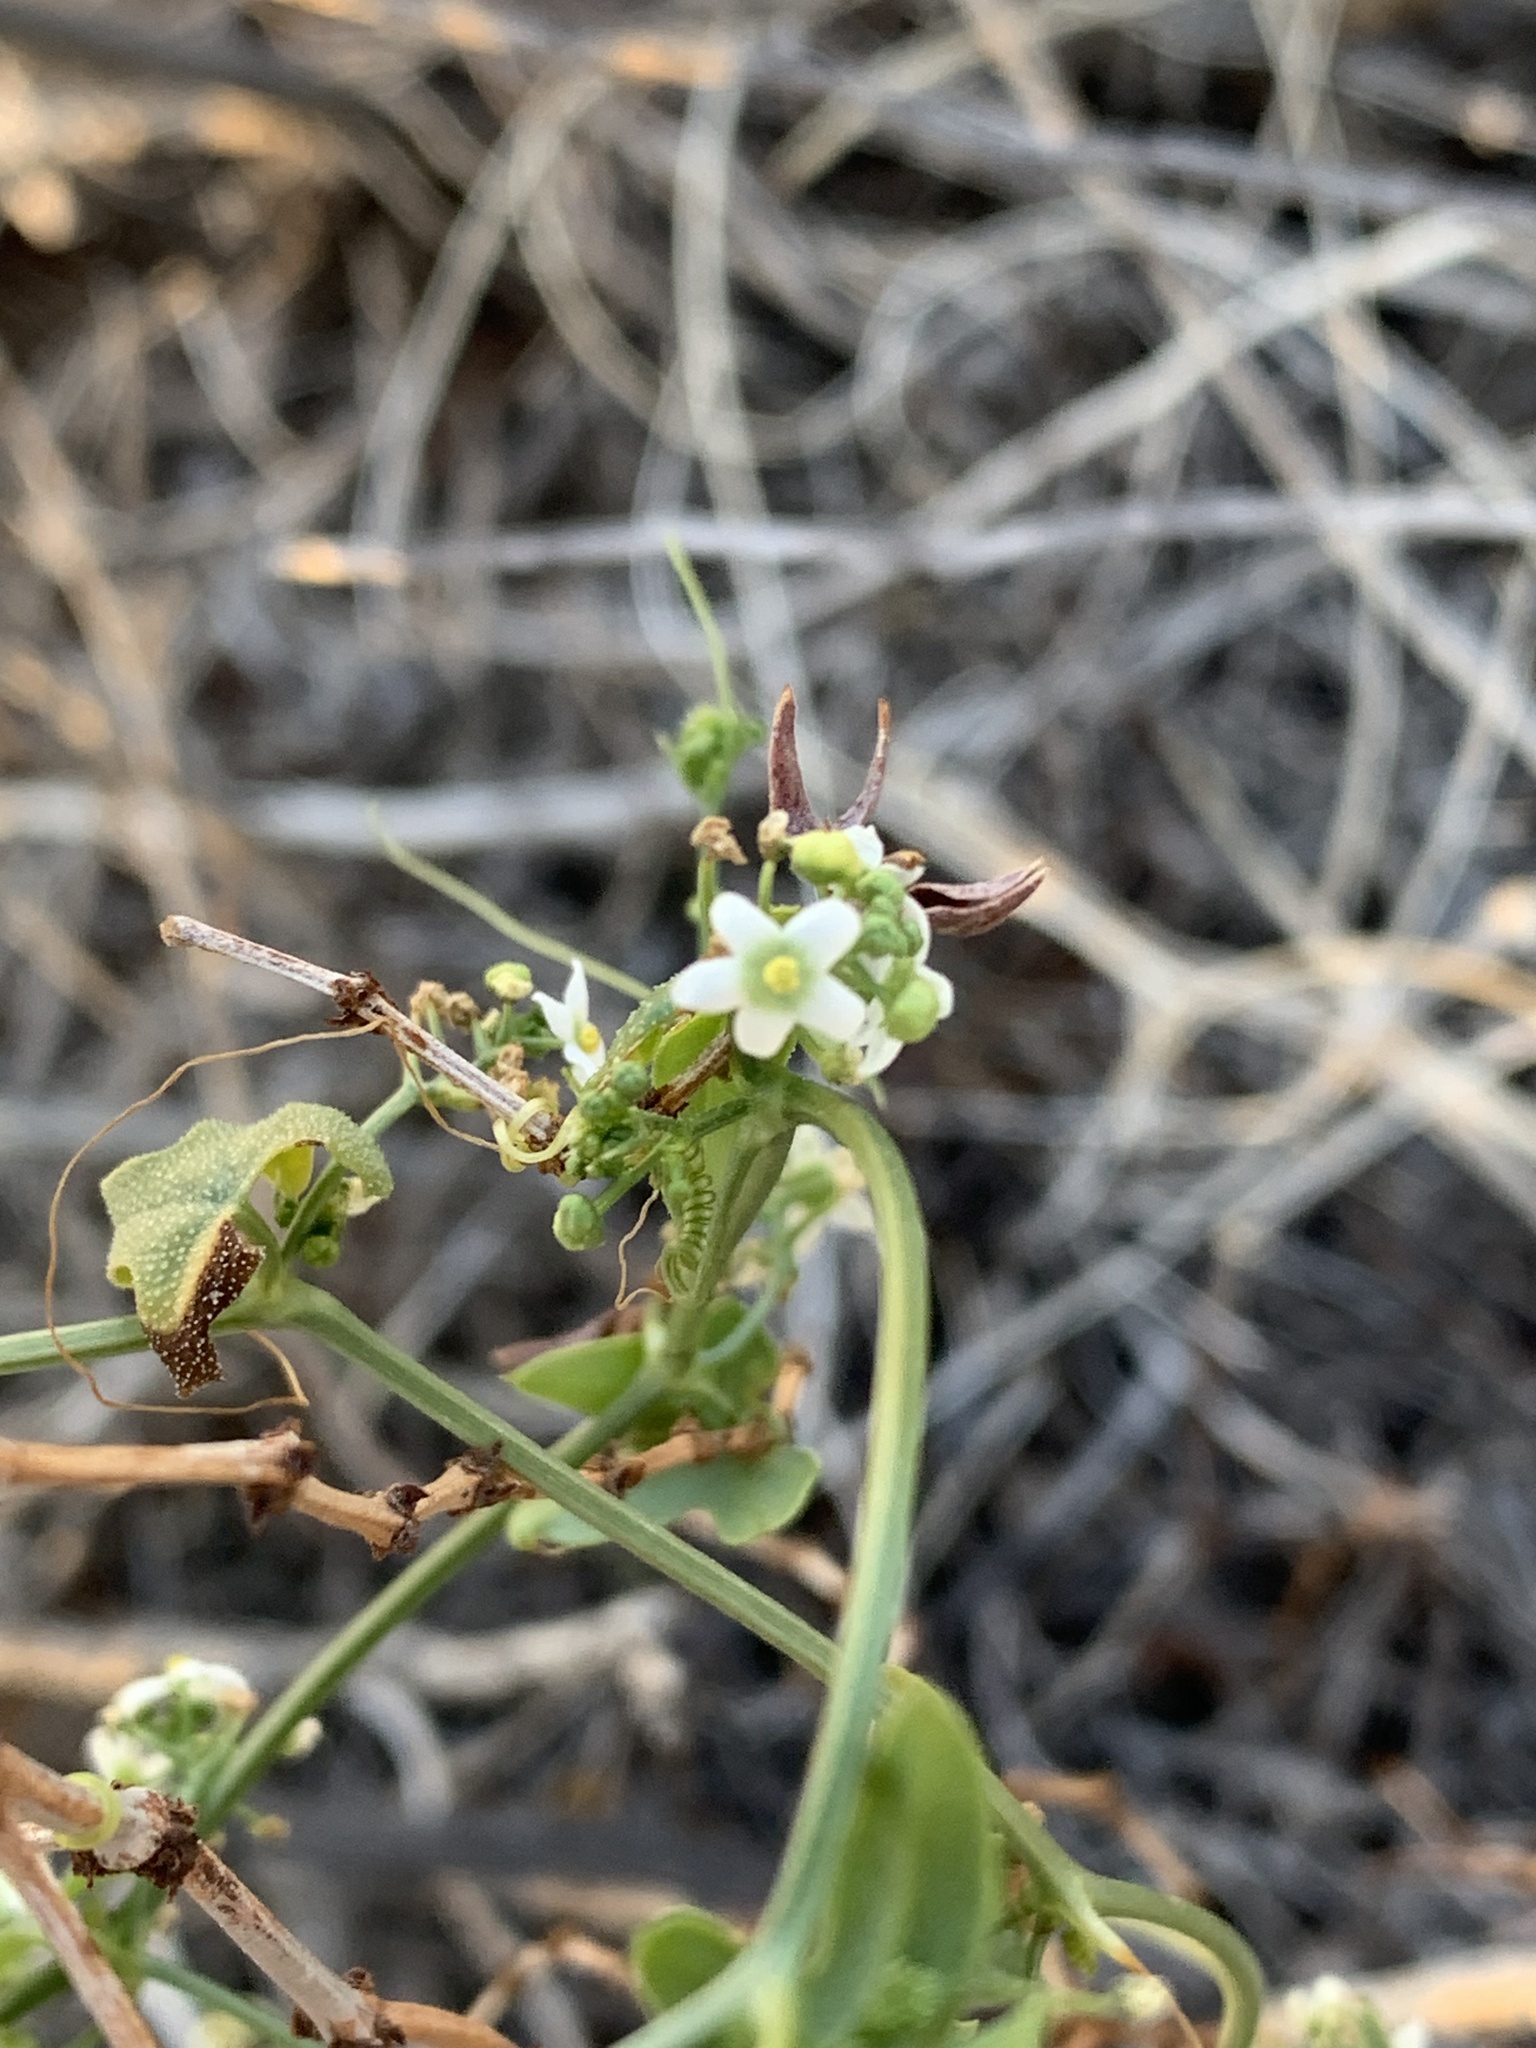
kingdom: Plantae
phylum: Tracheophyta
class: Magnoliopsida
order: Cucurbitales
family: Cucurbitaceae
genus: Echinopepon
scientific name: Echinopepon bigelovii
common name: Desert starvine
